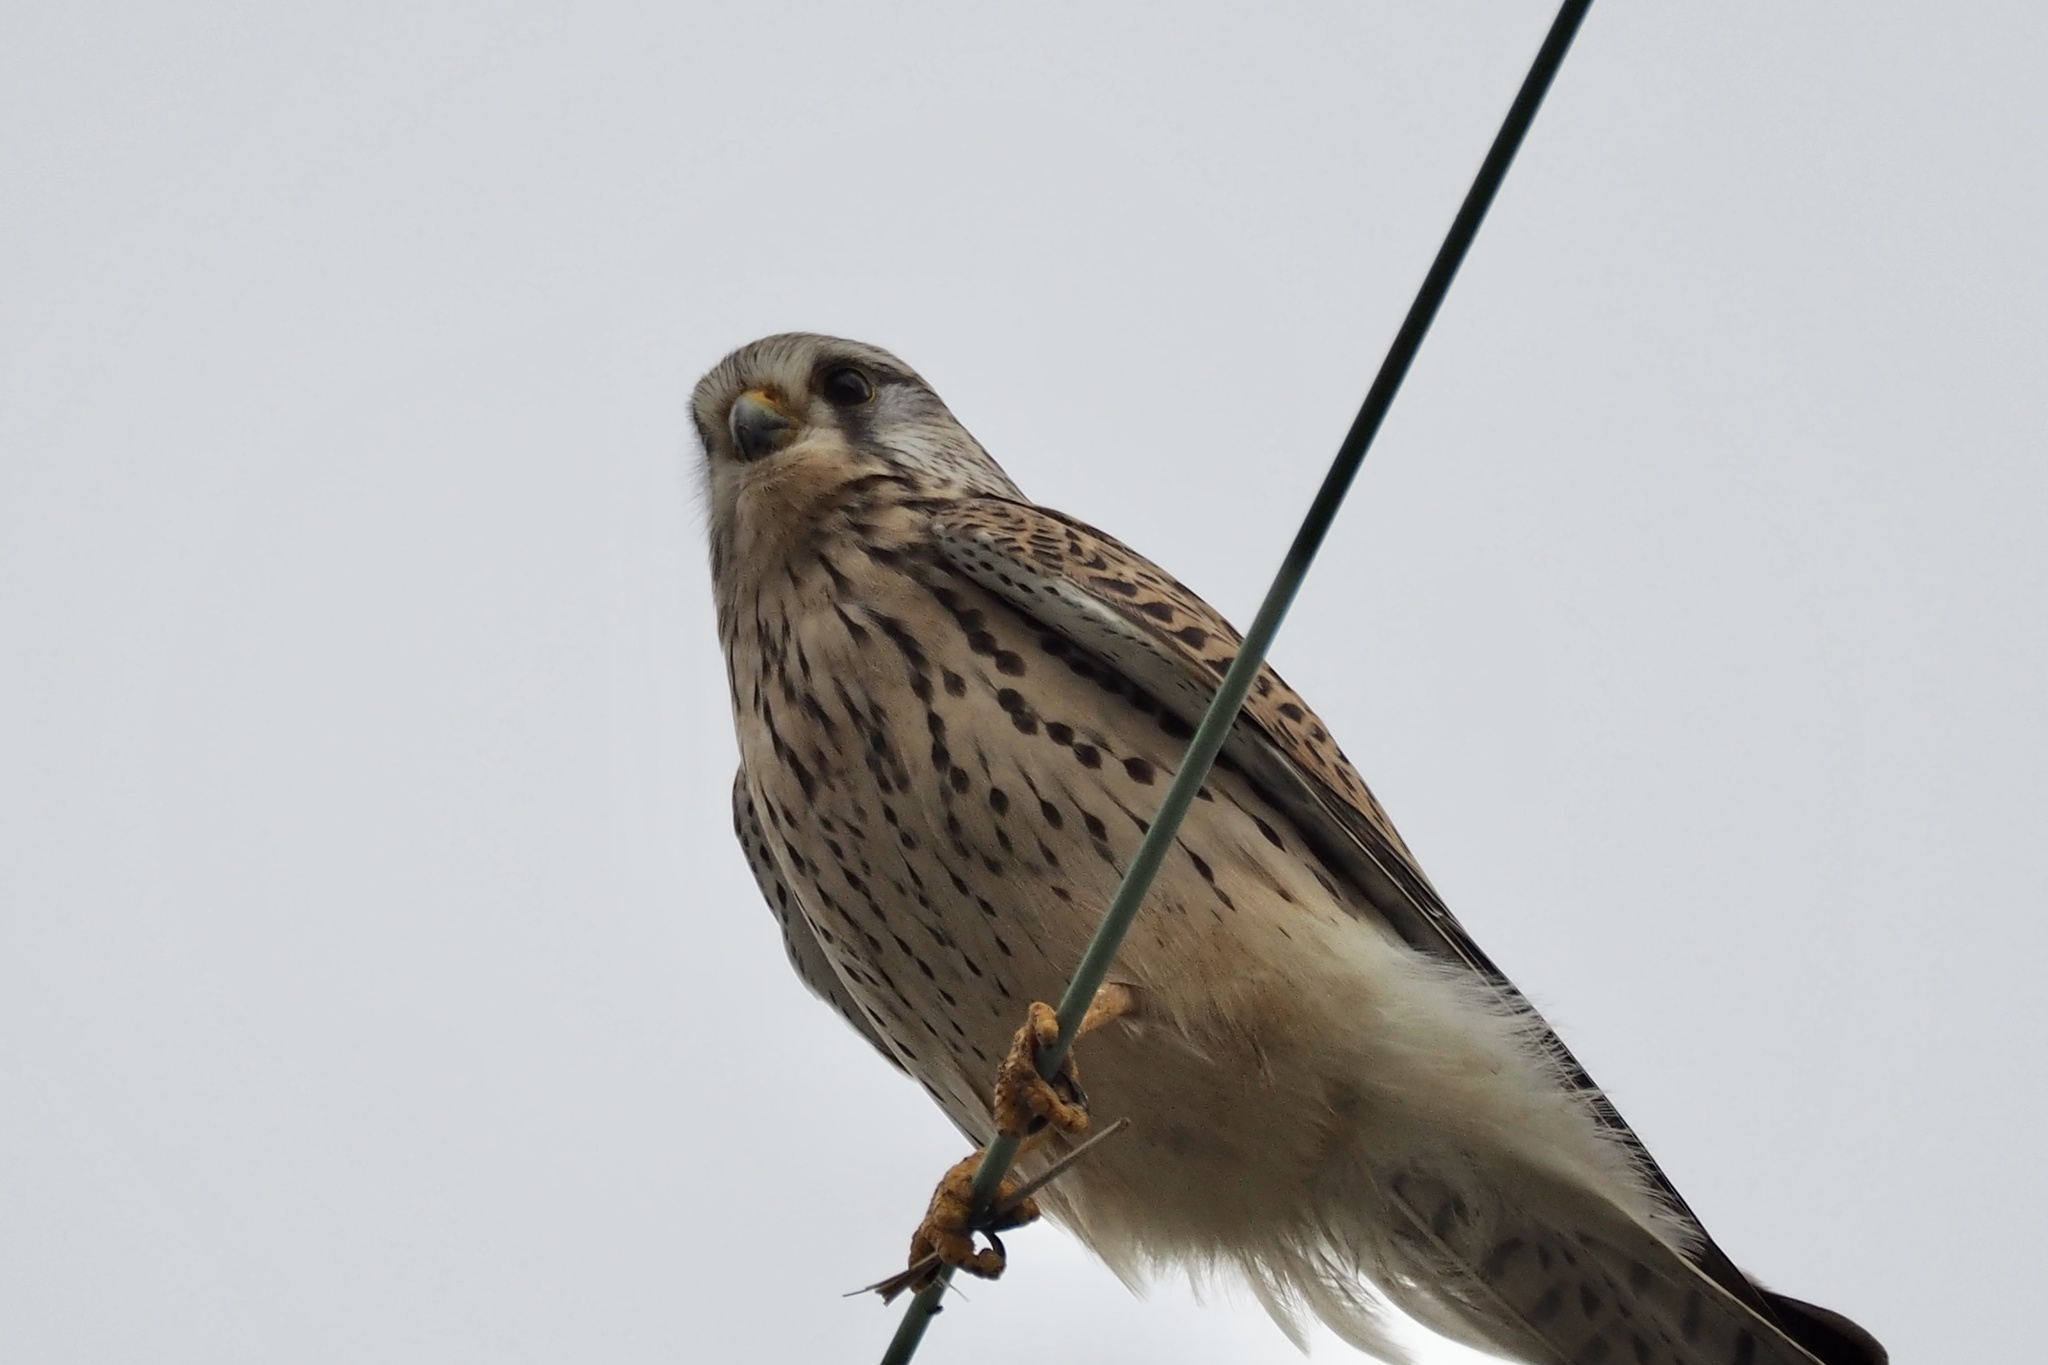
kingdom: Animalia
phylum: Chordata
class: Aves
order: Falconiformes
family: Falconidae
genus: Falco
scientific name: Falco tinnunculus
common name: Common kestrel
